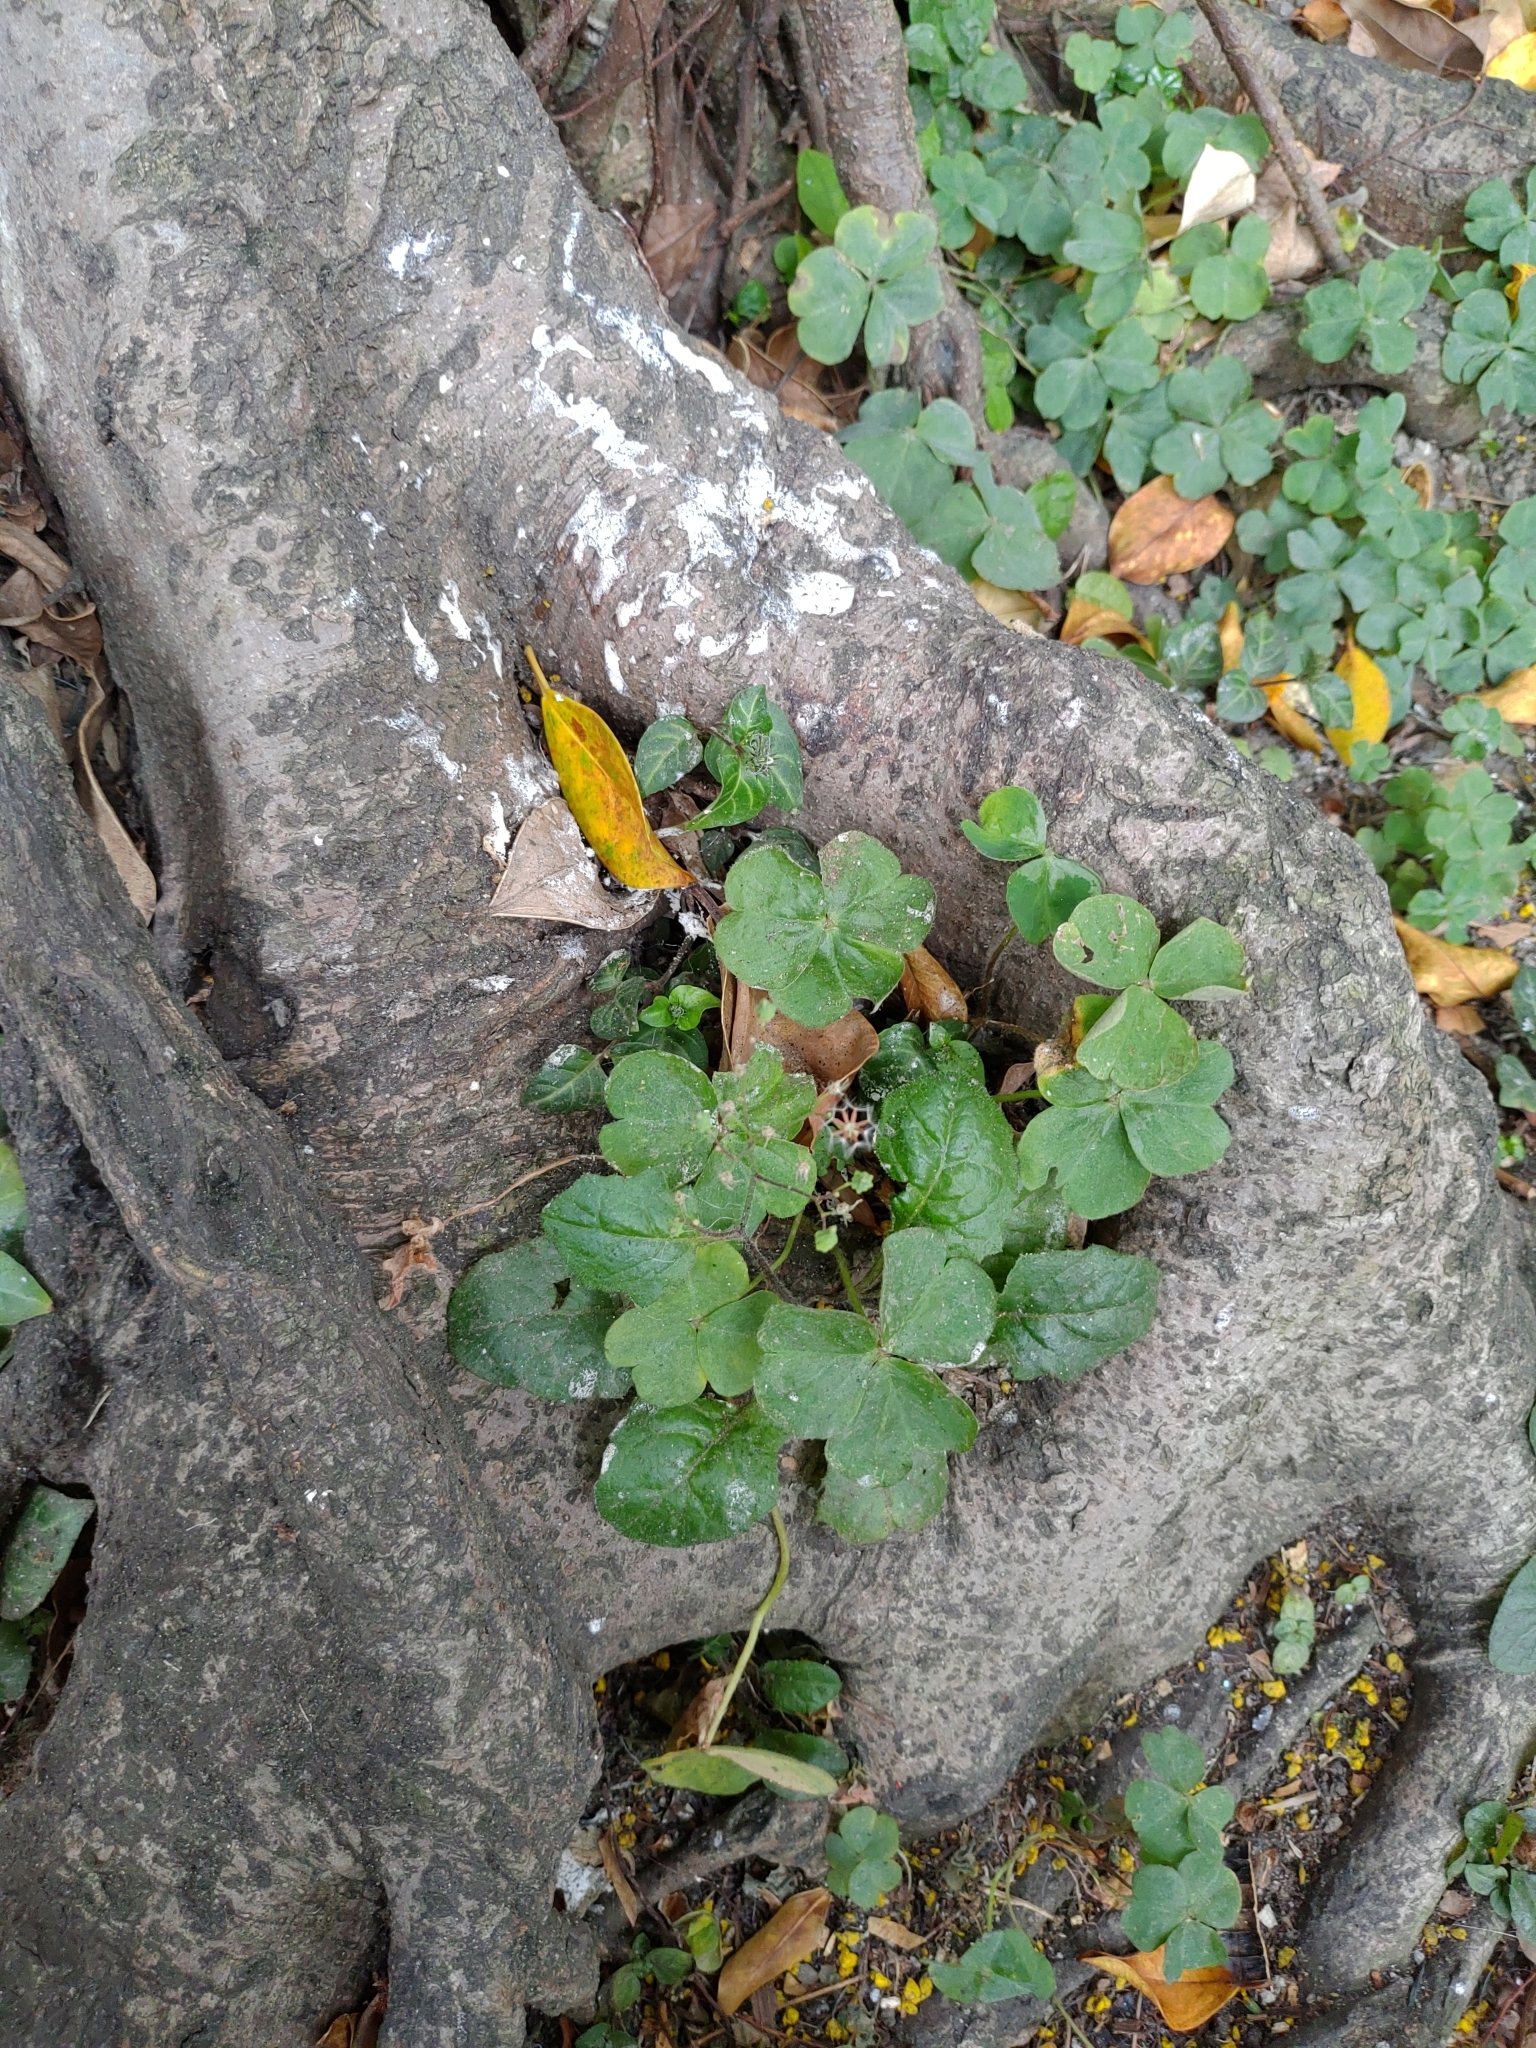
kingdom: Plantae
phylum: Tracheophyta
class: Magnoliopsida
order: Oxalidales
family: Oxalidaceae
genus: Oxalis
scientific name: Oxalis debilis
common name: Large-flowered pink-sorrel
